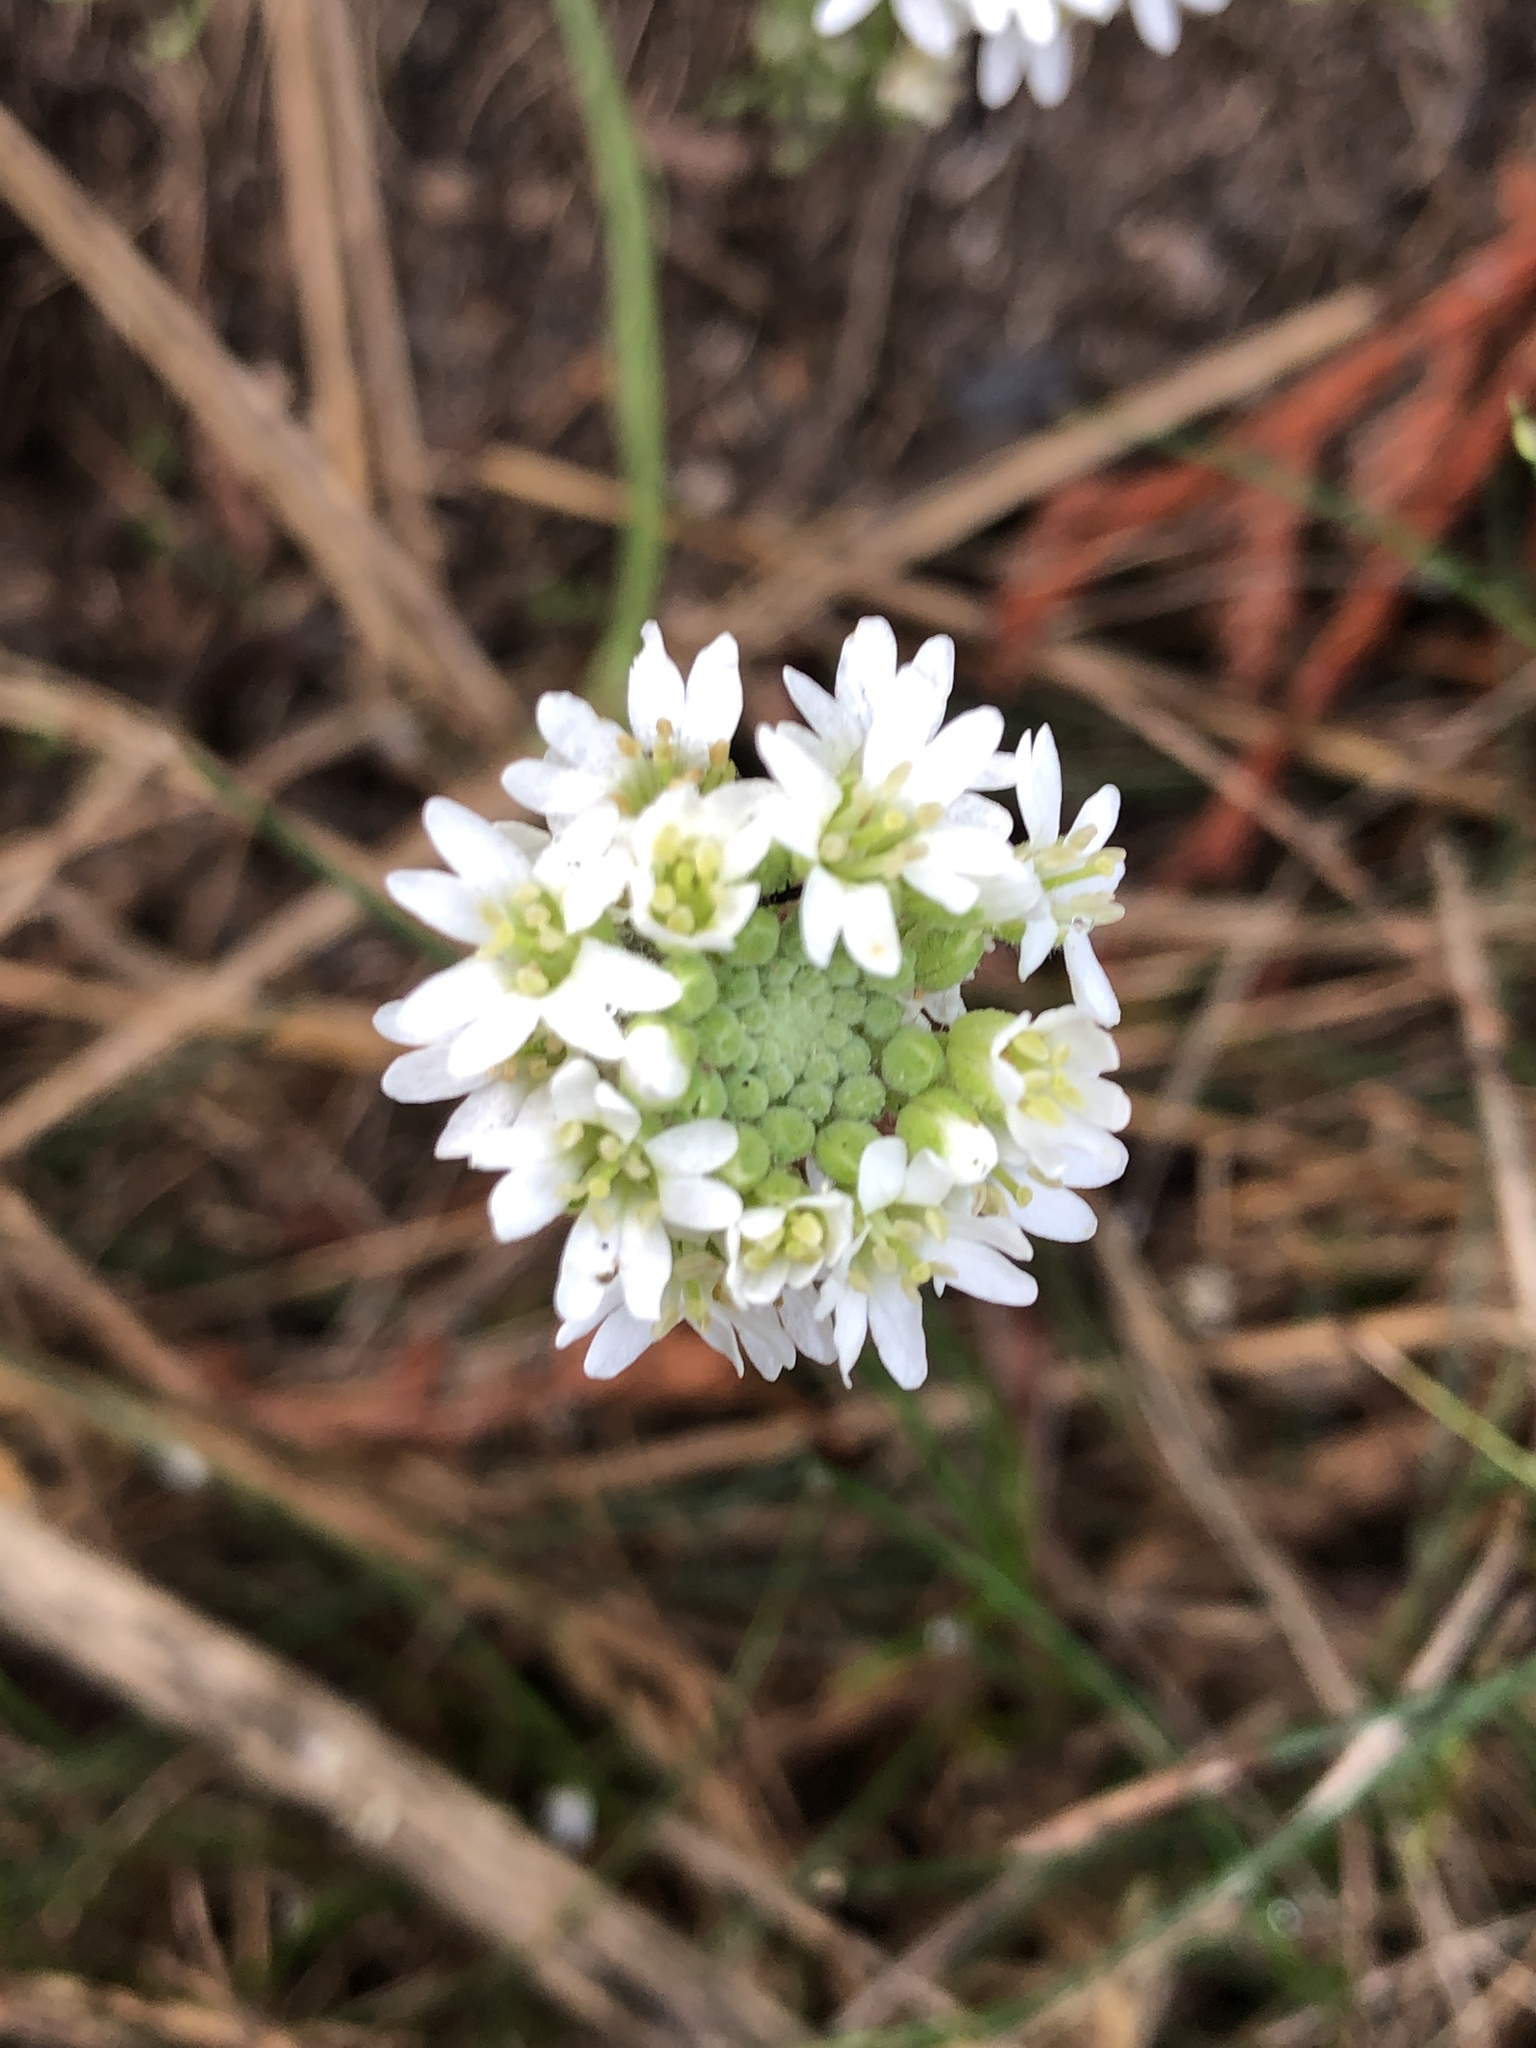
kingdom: Plantae
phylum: Tracheophyta
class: Magnoliopsida
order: Brassicales
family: Brassicaceae
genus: Berteroa
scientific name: Berteroa incana
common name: Hoary alison
